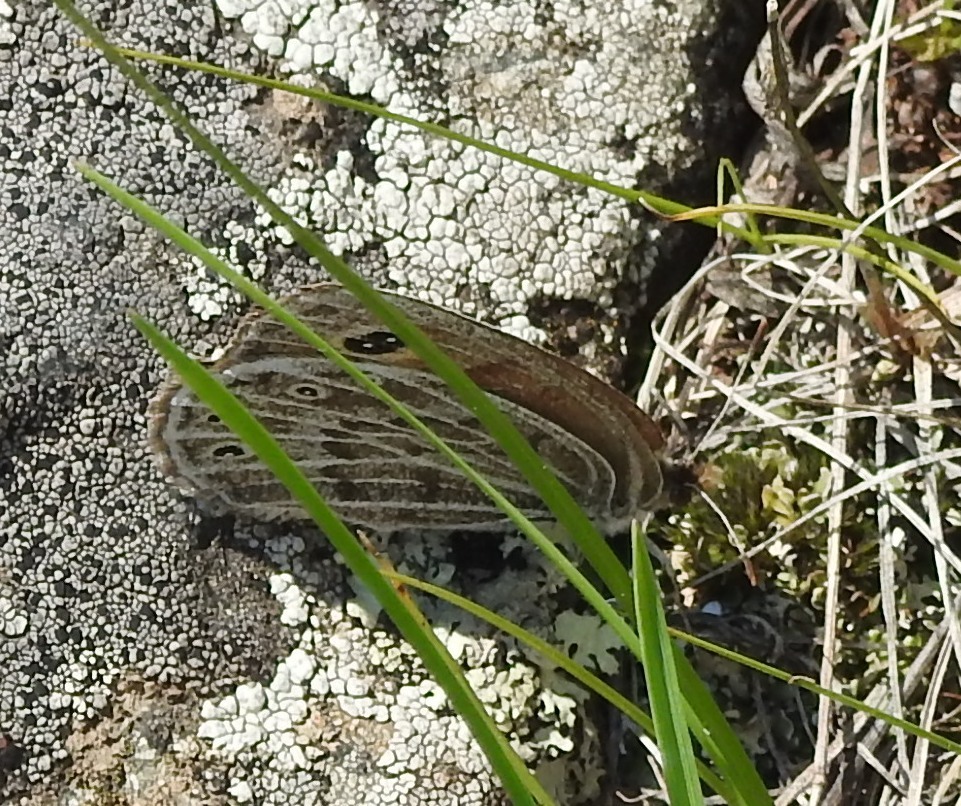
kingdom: Animalia
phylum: Arthropoda
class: Insecta
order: Lepidoptera
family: Nymphalidae
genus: Erebia
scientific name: Erebia Boeberia parmenio
